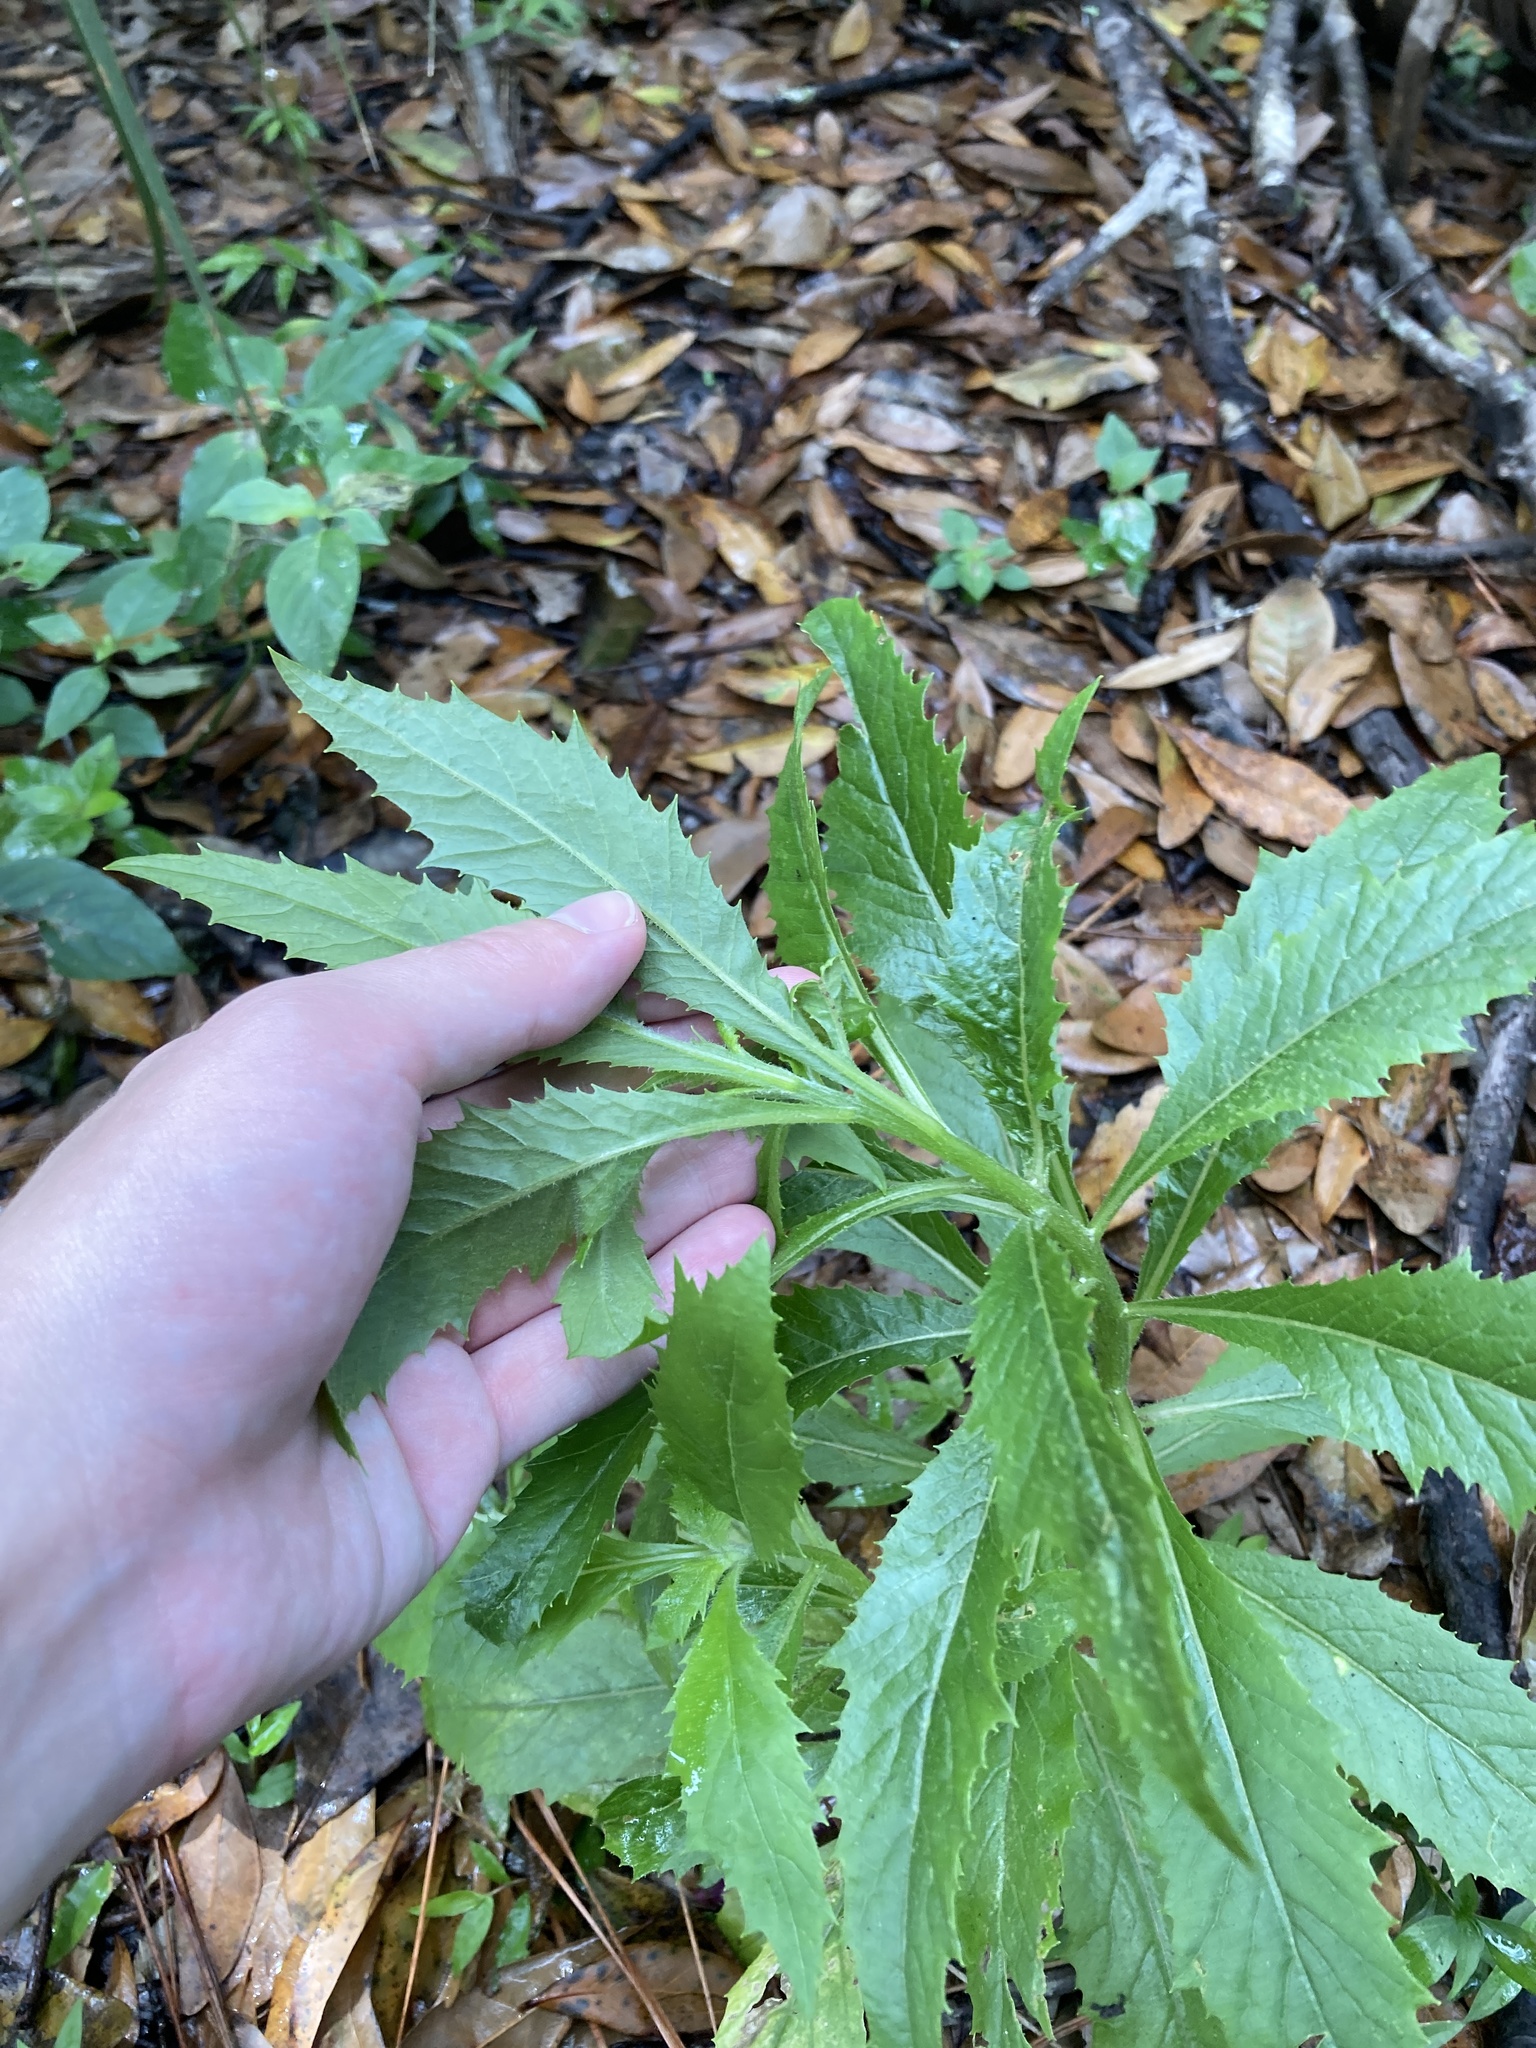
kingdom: Plantae
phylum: Tracheophyta
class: Magnoliopsida
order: Asterales
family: Asteraceae
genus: Erechtites
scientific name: Erechtites hieraciifolius
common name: American burnweed
